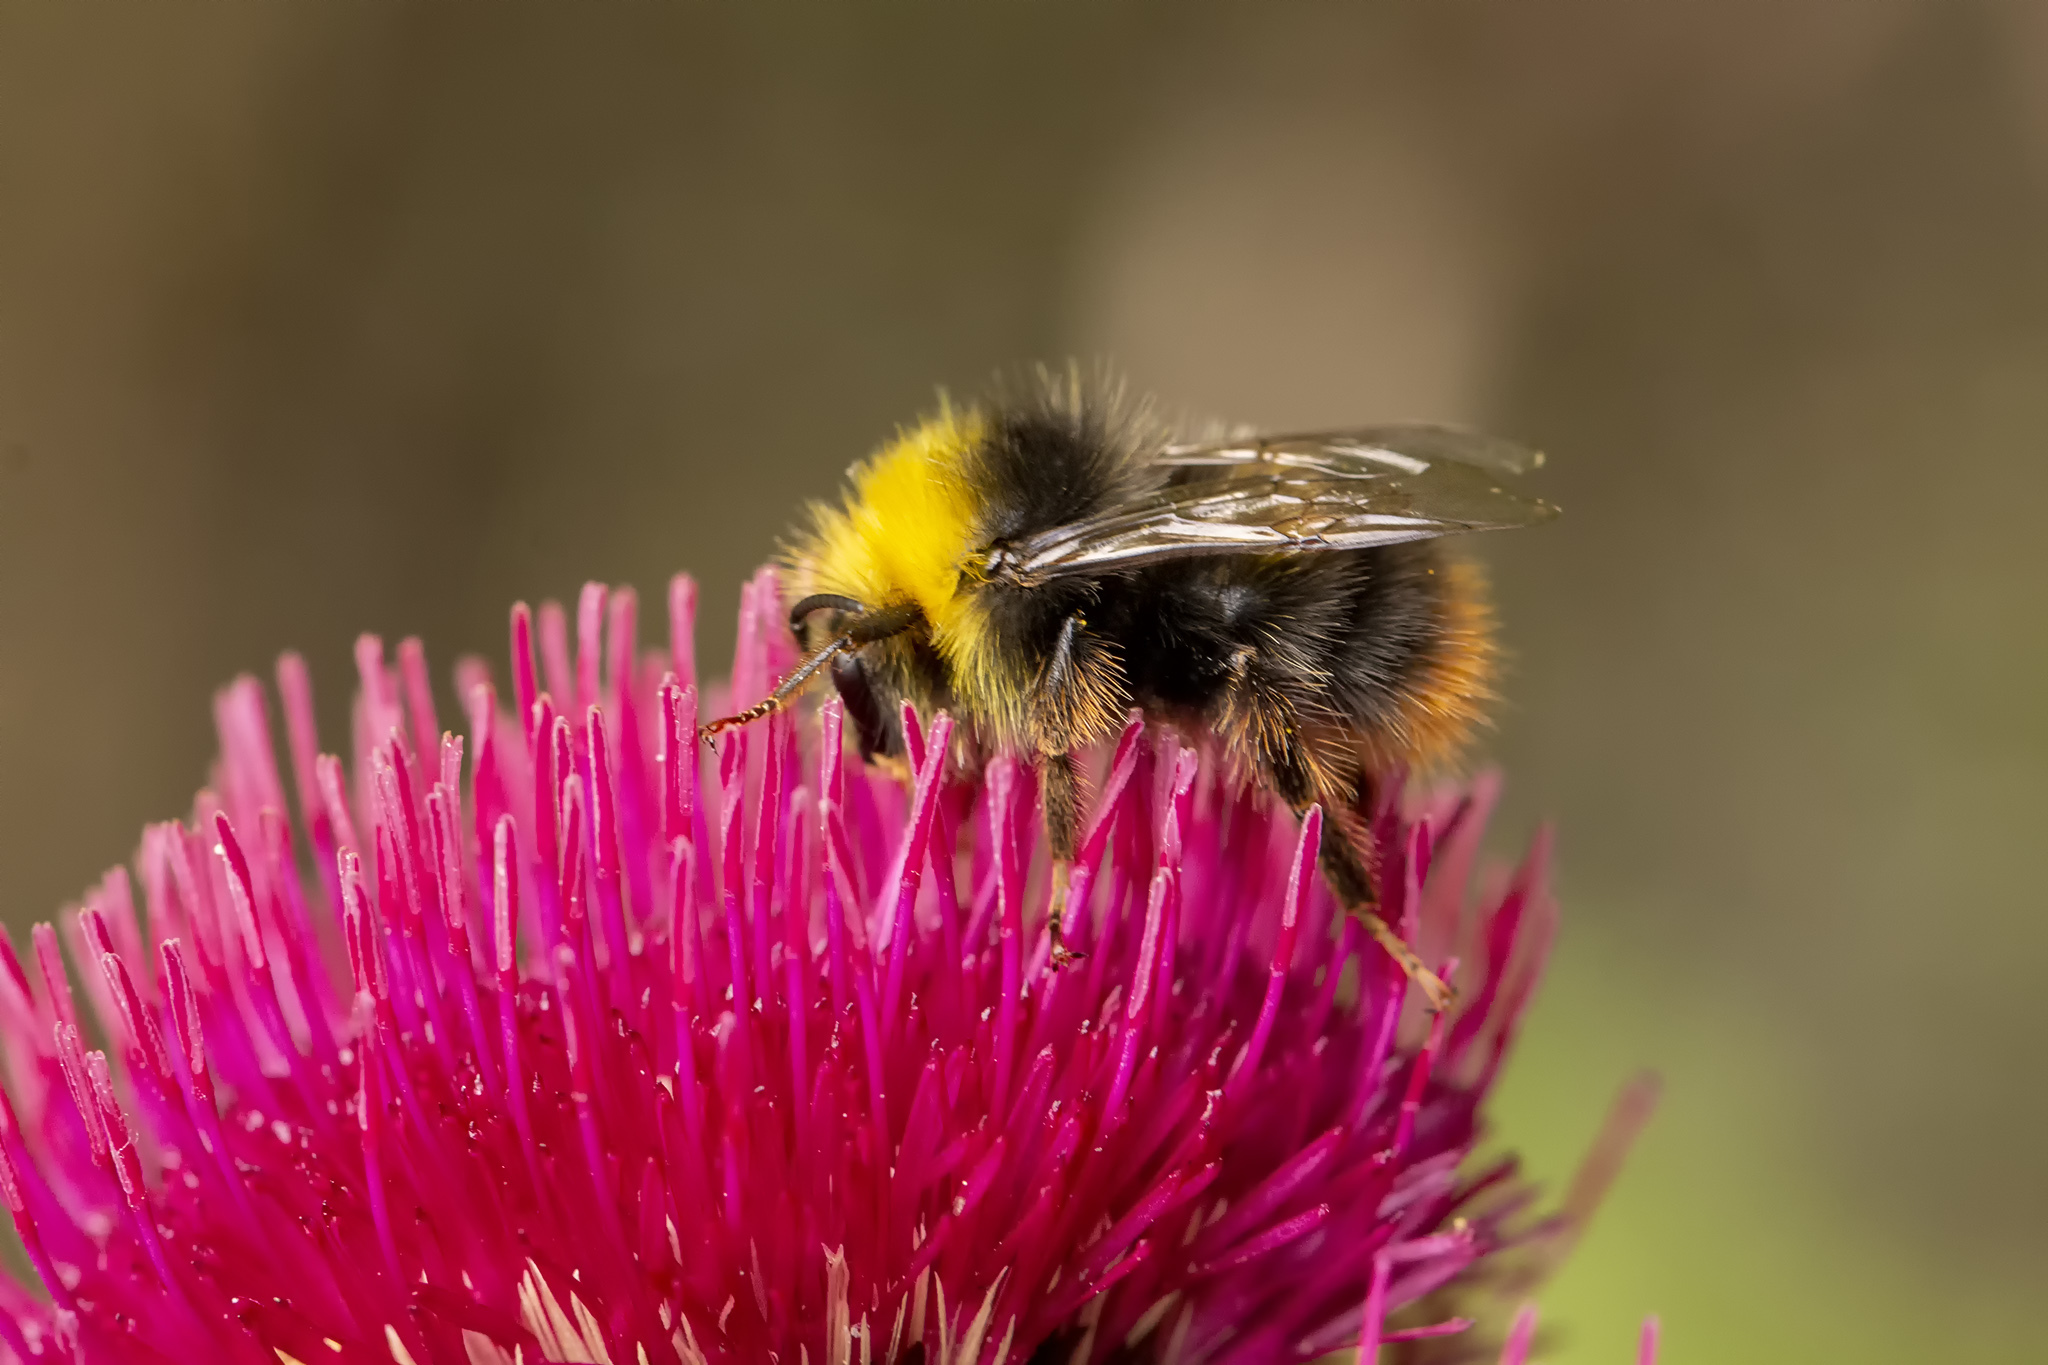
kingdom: Animalia
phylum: Arthropoda
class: Insecta
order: Hymenoptera
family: Apidae
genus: Bombus
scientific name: Bombus pratorum
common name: Early humble-bee
